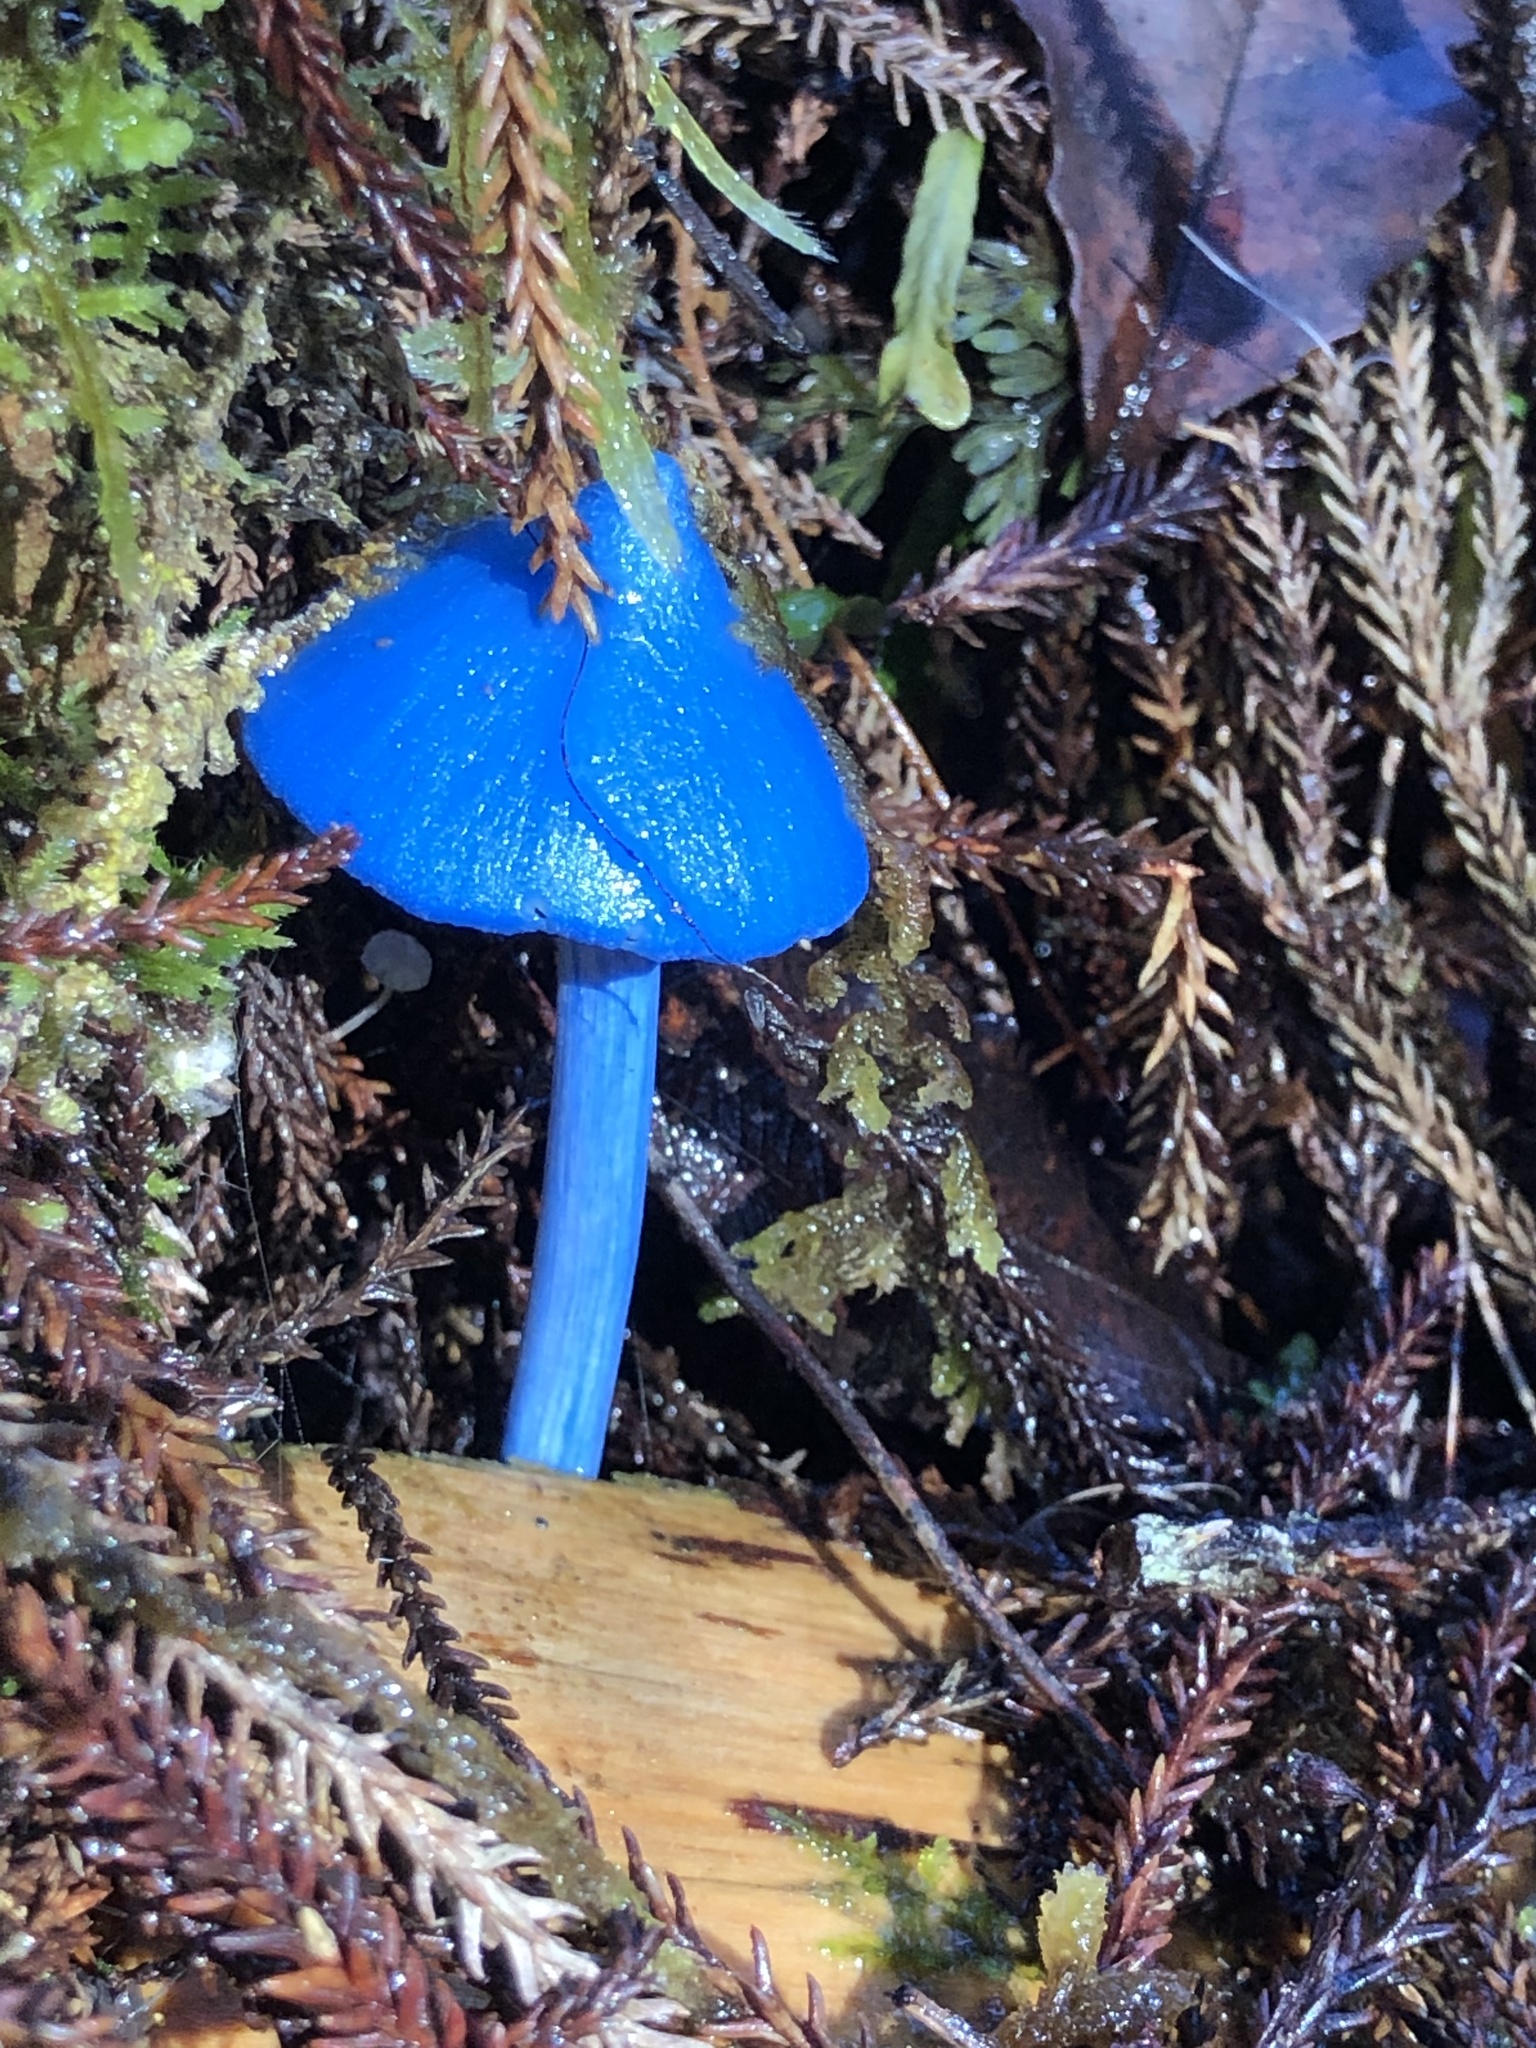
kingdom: Fungi
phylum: Basidiomycota
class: Agaricomycetes
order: Agaricales
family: Entolomataceae
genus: Entoloma
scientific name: Entoloma hochstetteri
